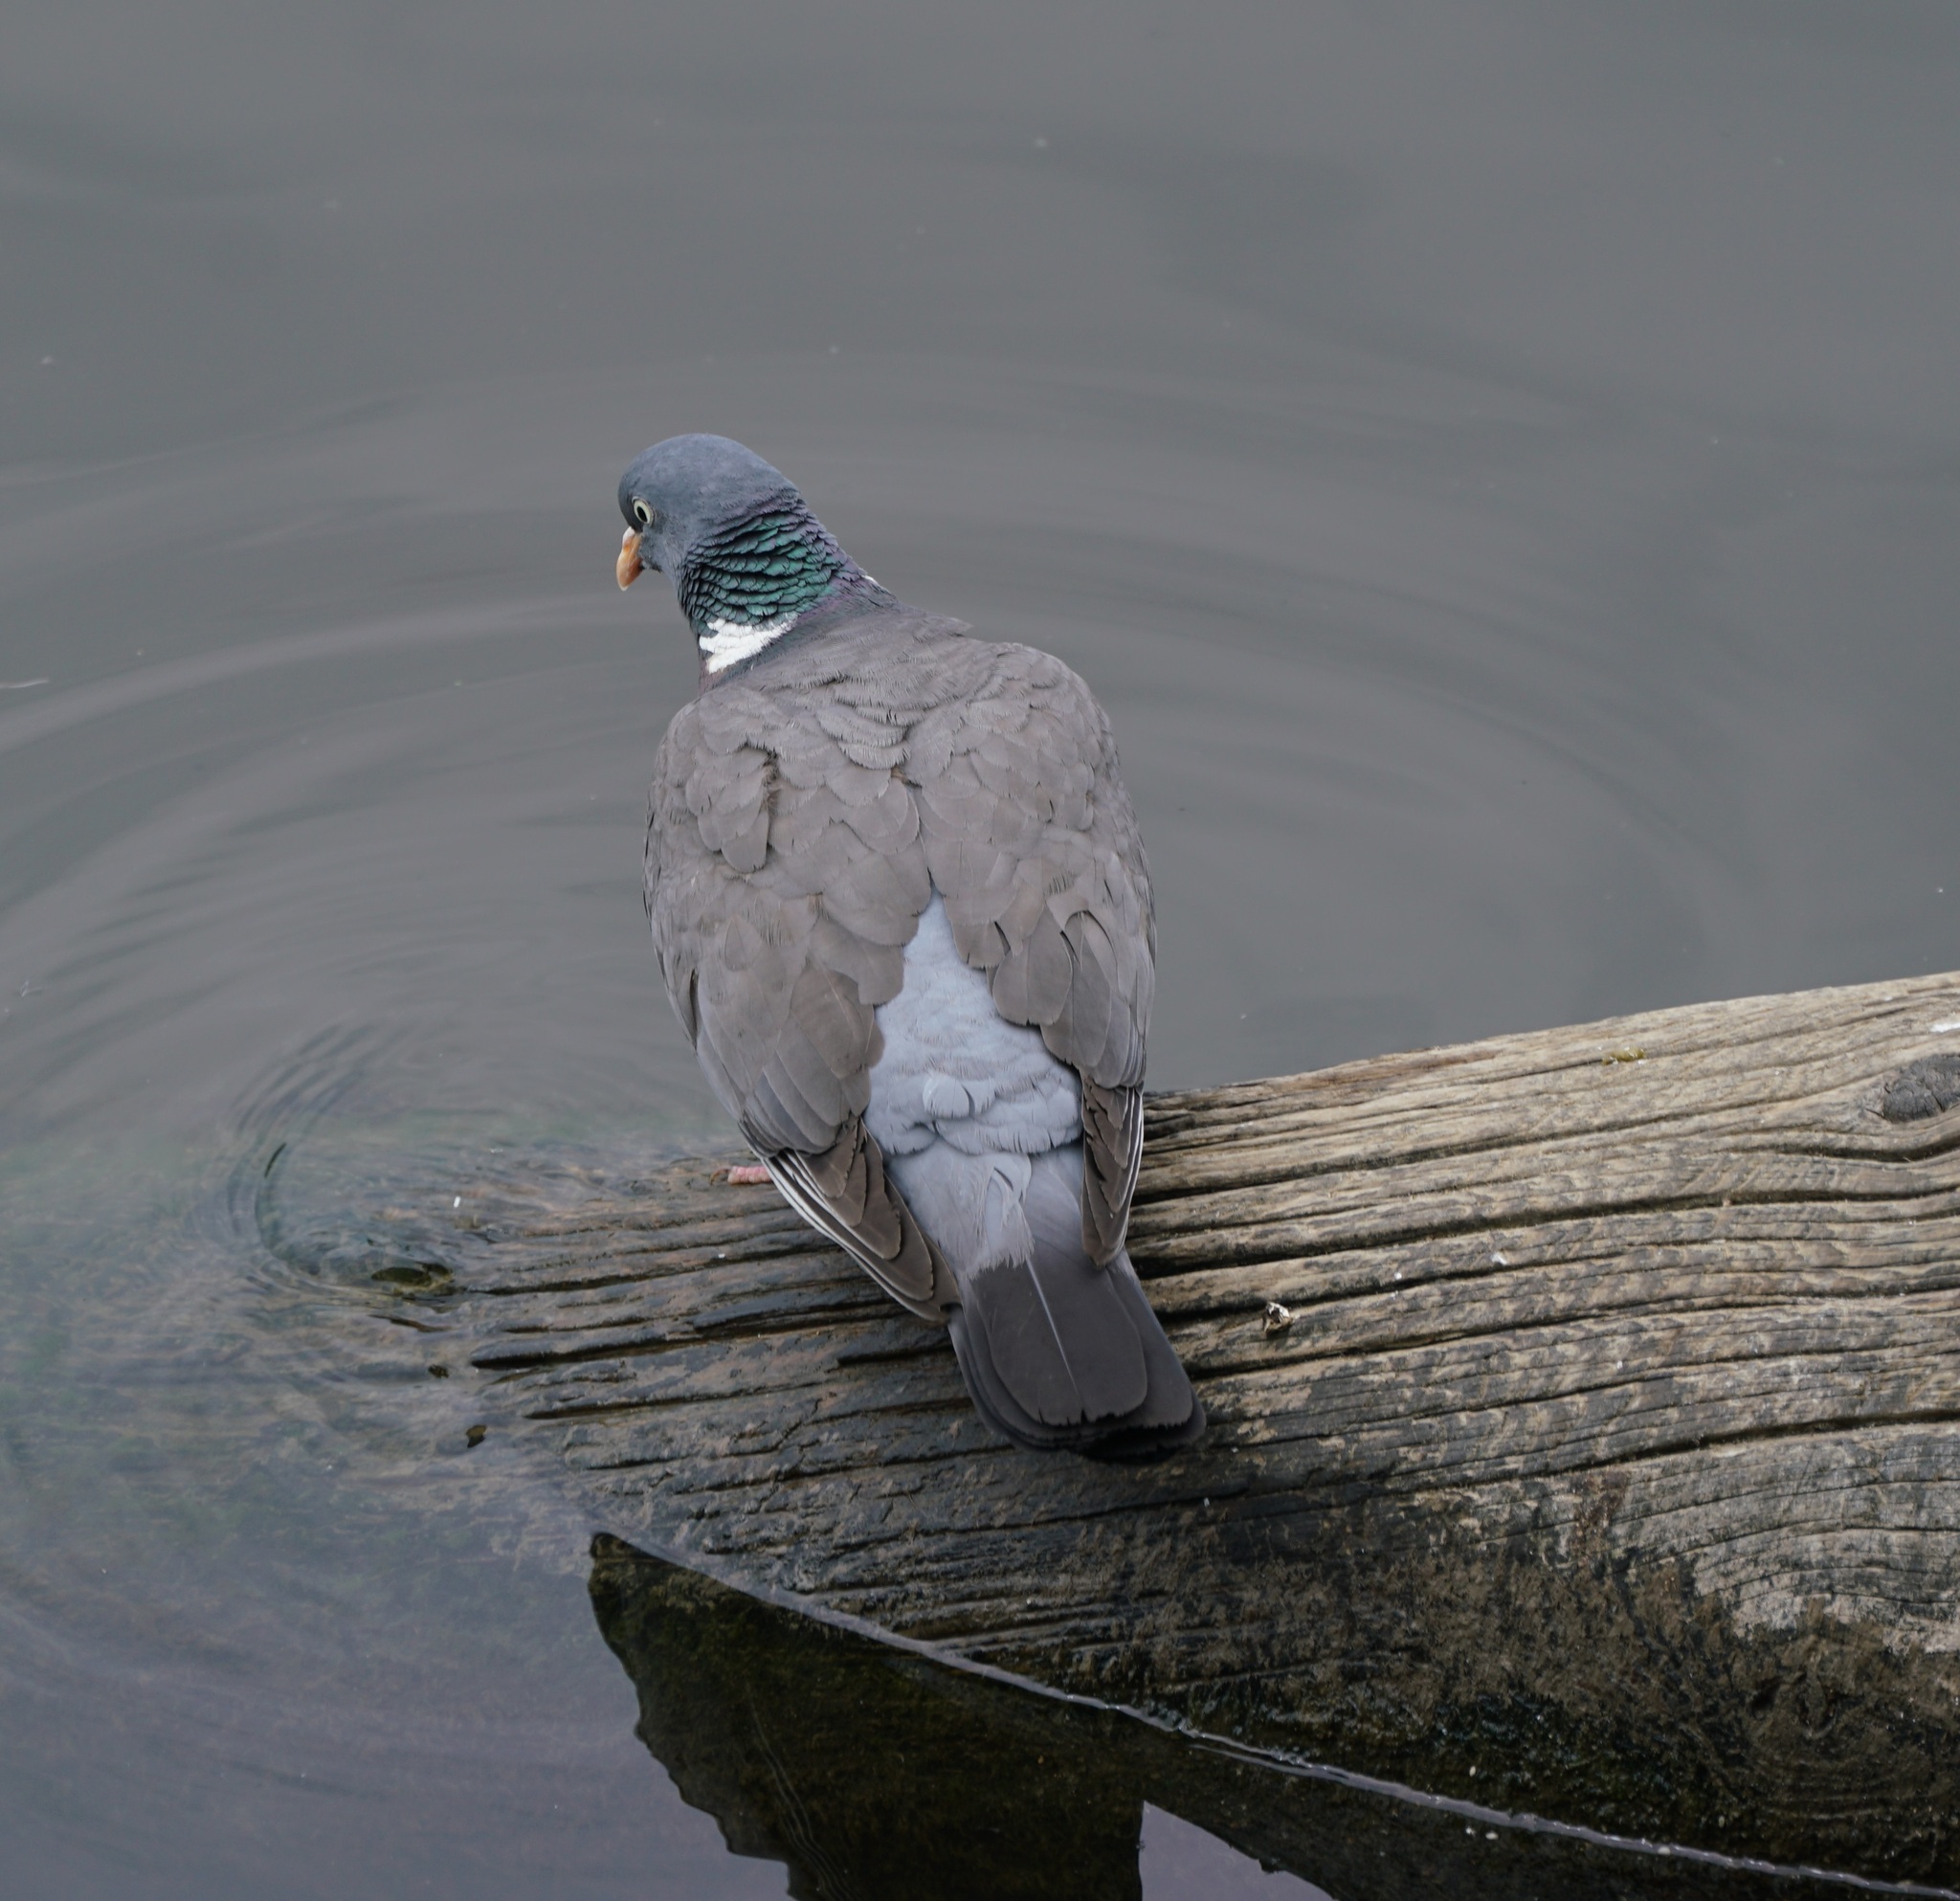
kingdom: Animalia
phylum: Chordata
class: Aves
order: Columbiformes
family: Columbidae
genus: Columba
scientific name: Columba palumbus
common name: Common wood pigeon
